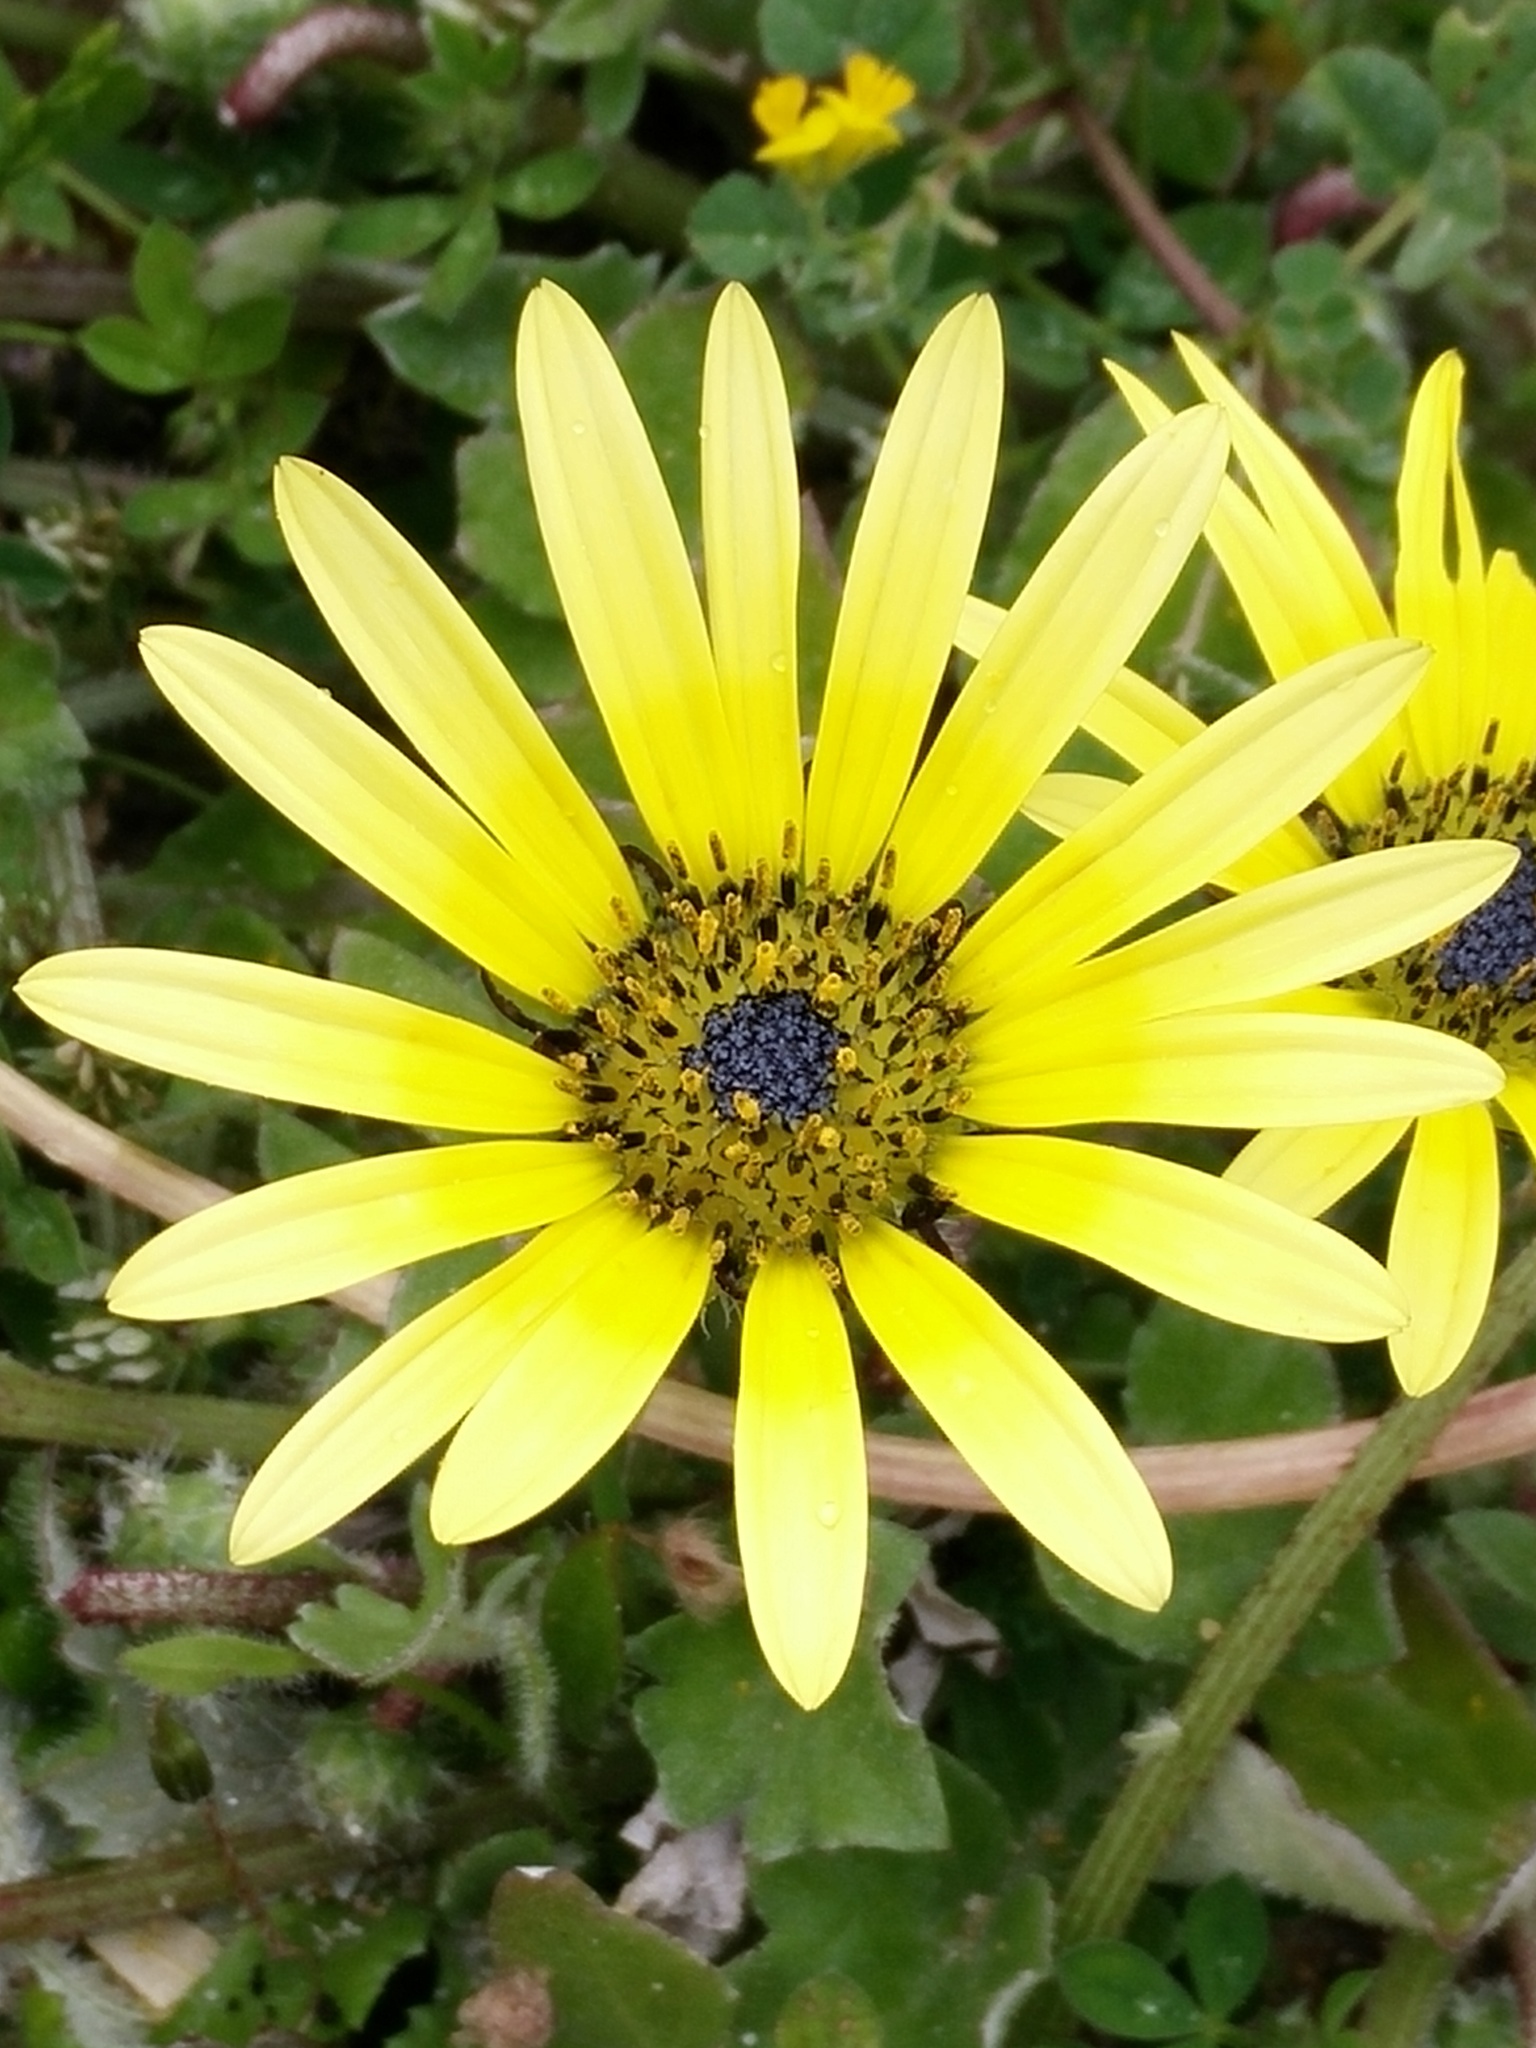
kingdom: Plantae
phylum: Tracheophyta
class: Magnoliopsida
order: Asterales
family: Asteraceae
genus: Arctotheca
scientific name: Arctotheca calendula
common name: Capeweed
